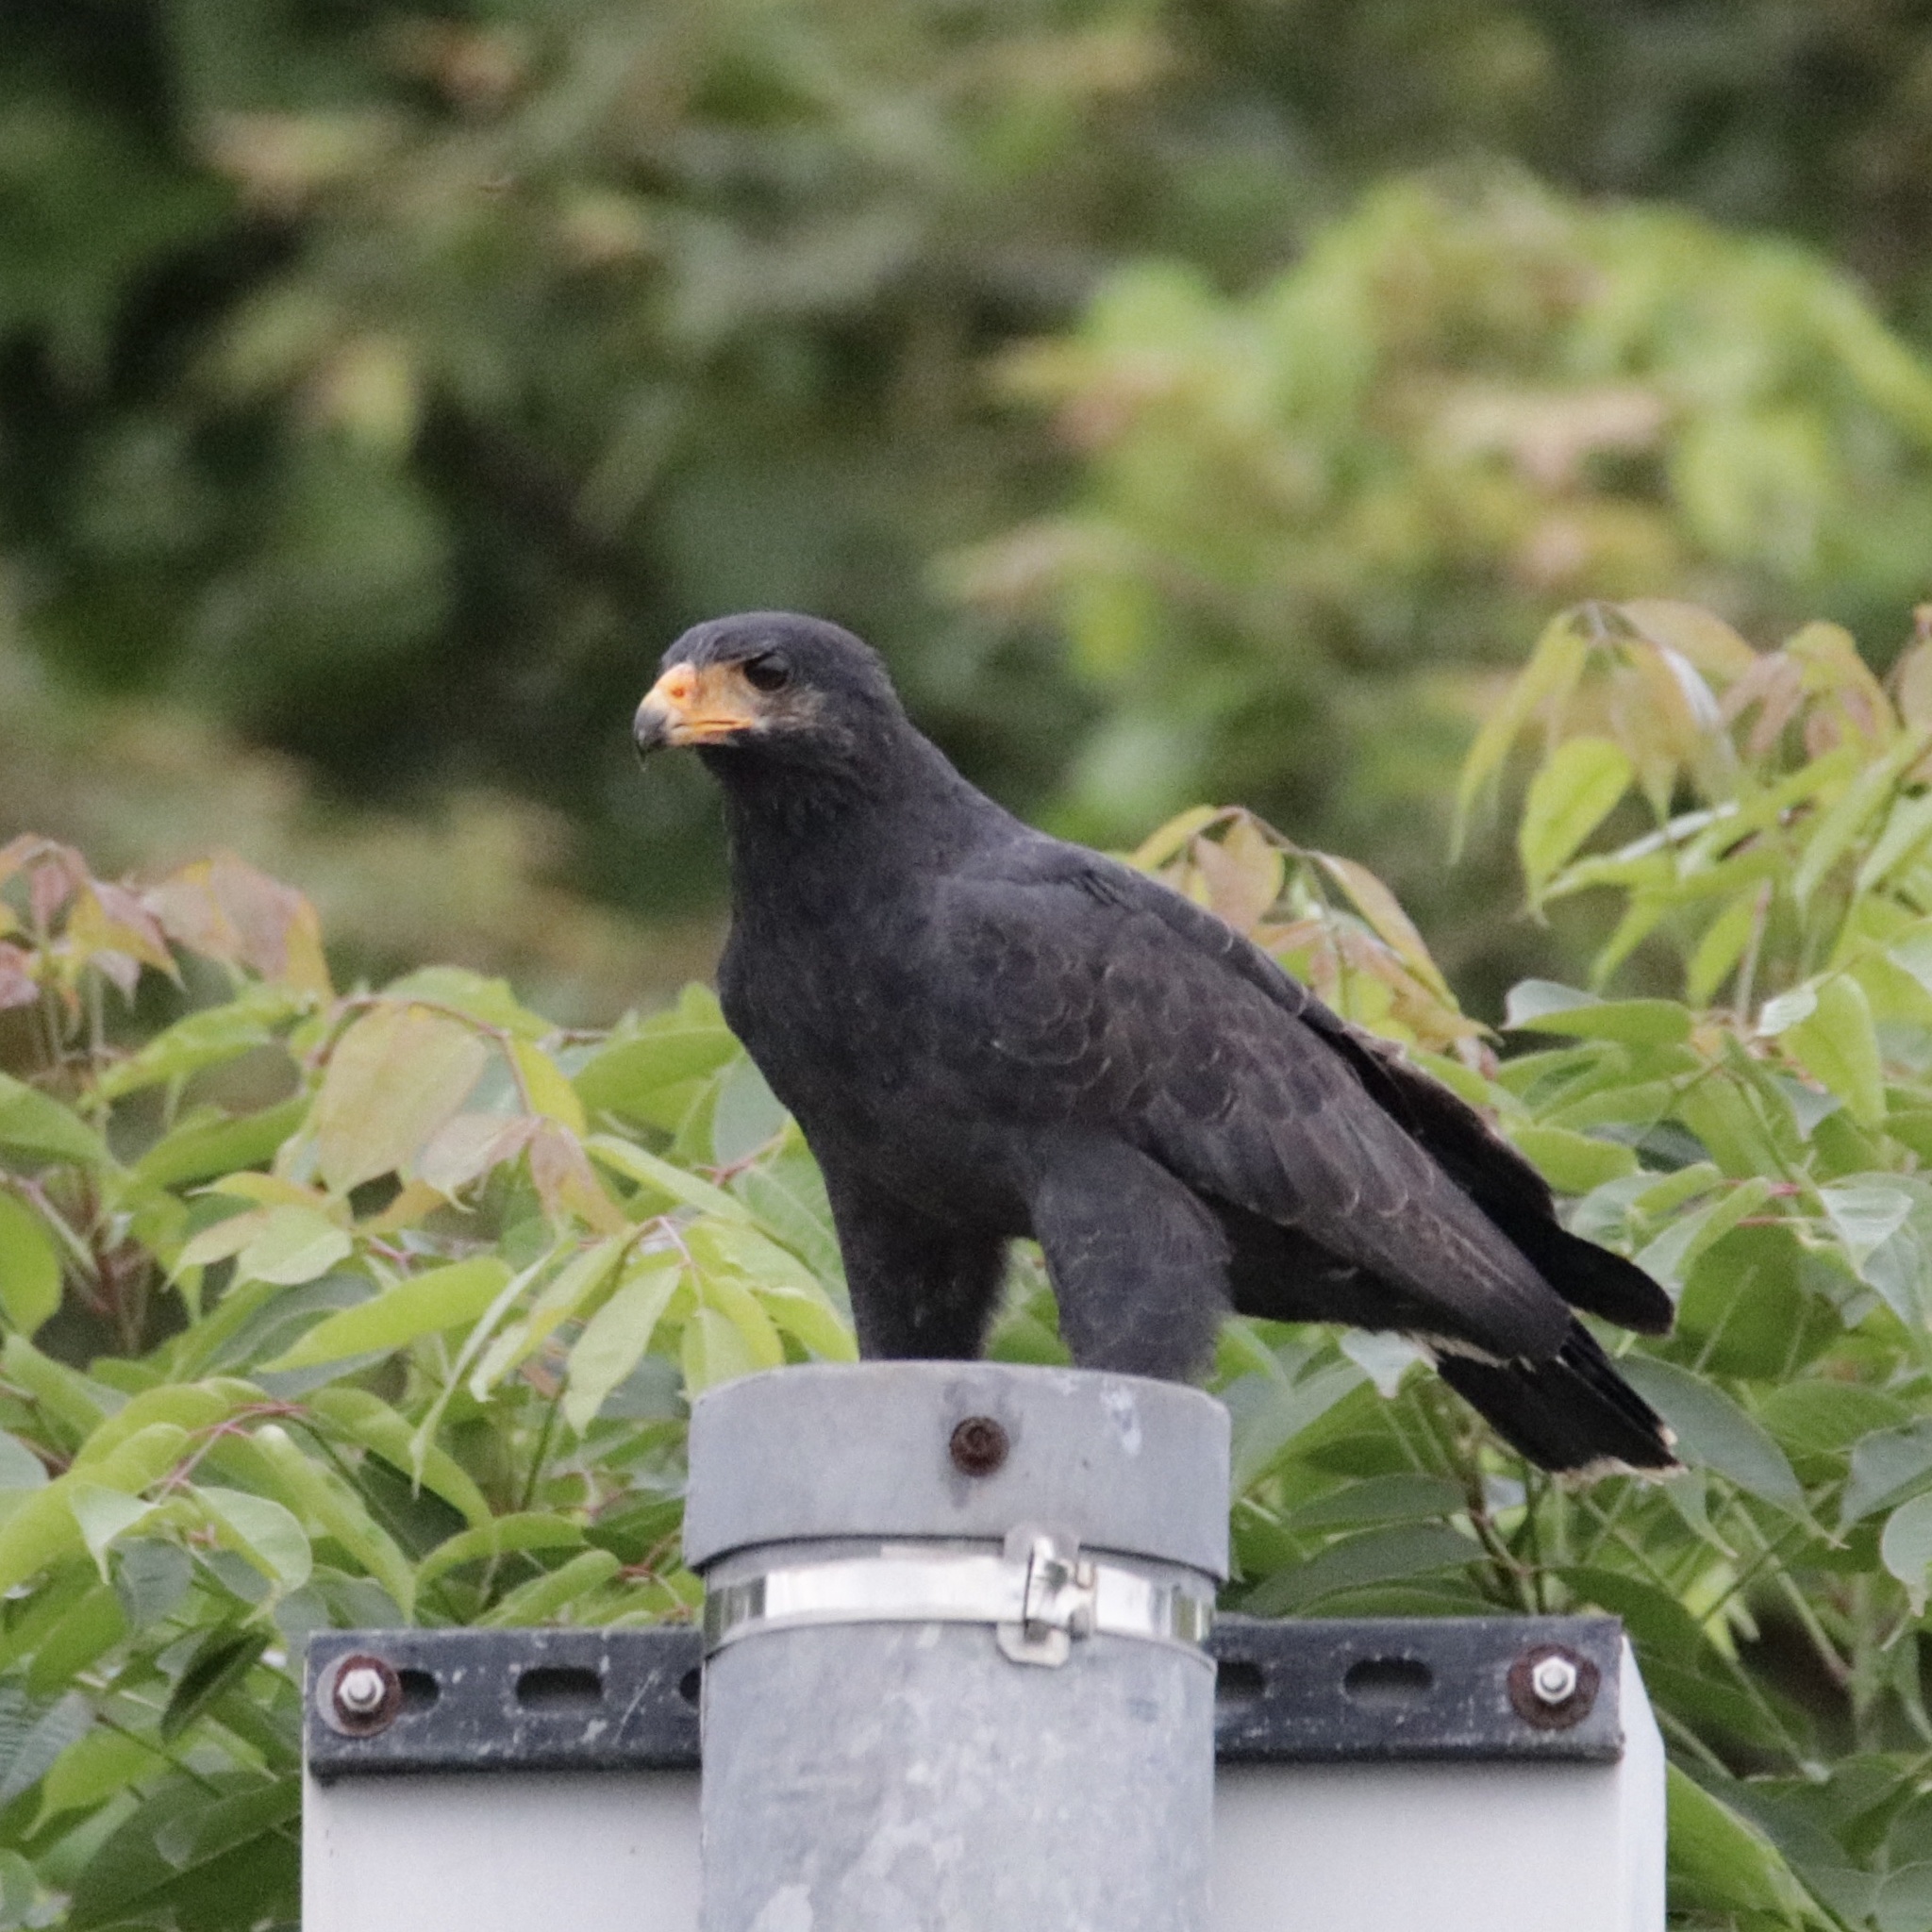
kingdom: Animalia
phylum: Chordata
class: Aves
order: Accipitriformes
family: Accipitridae
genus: Buteogallus
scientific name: Buteogallus anthracinus
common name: Common black hawk
